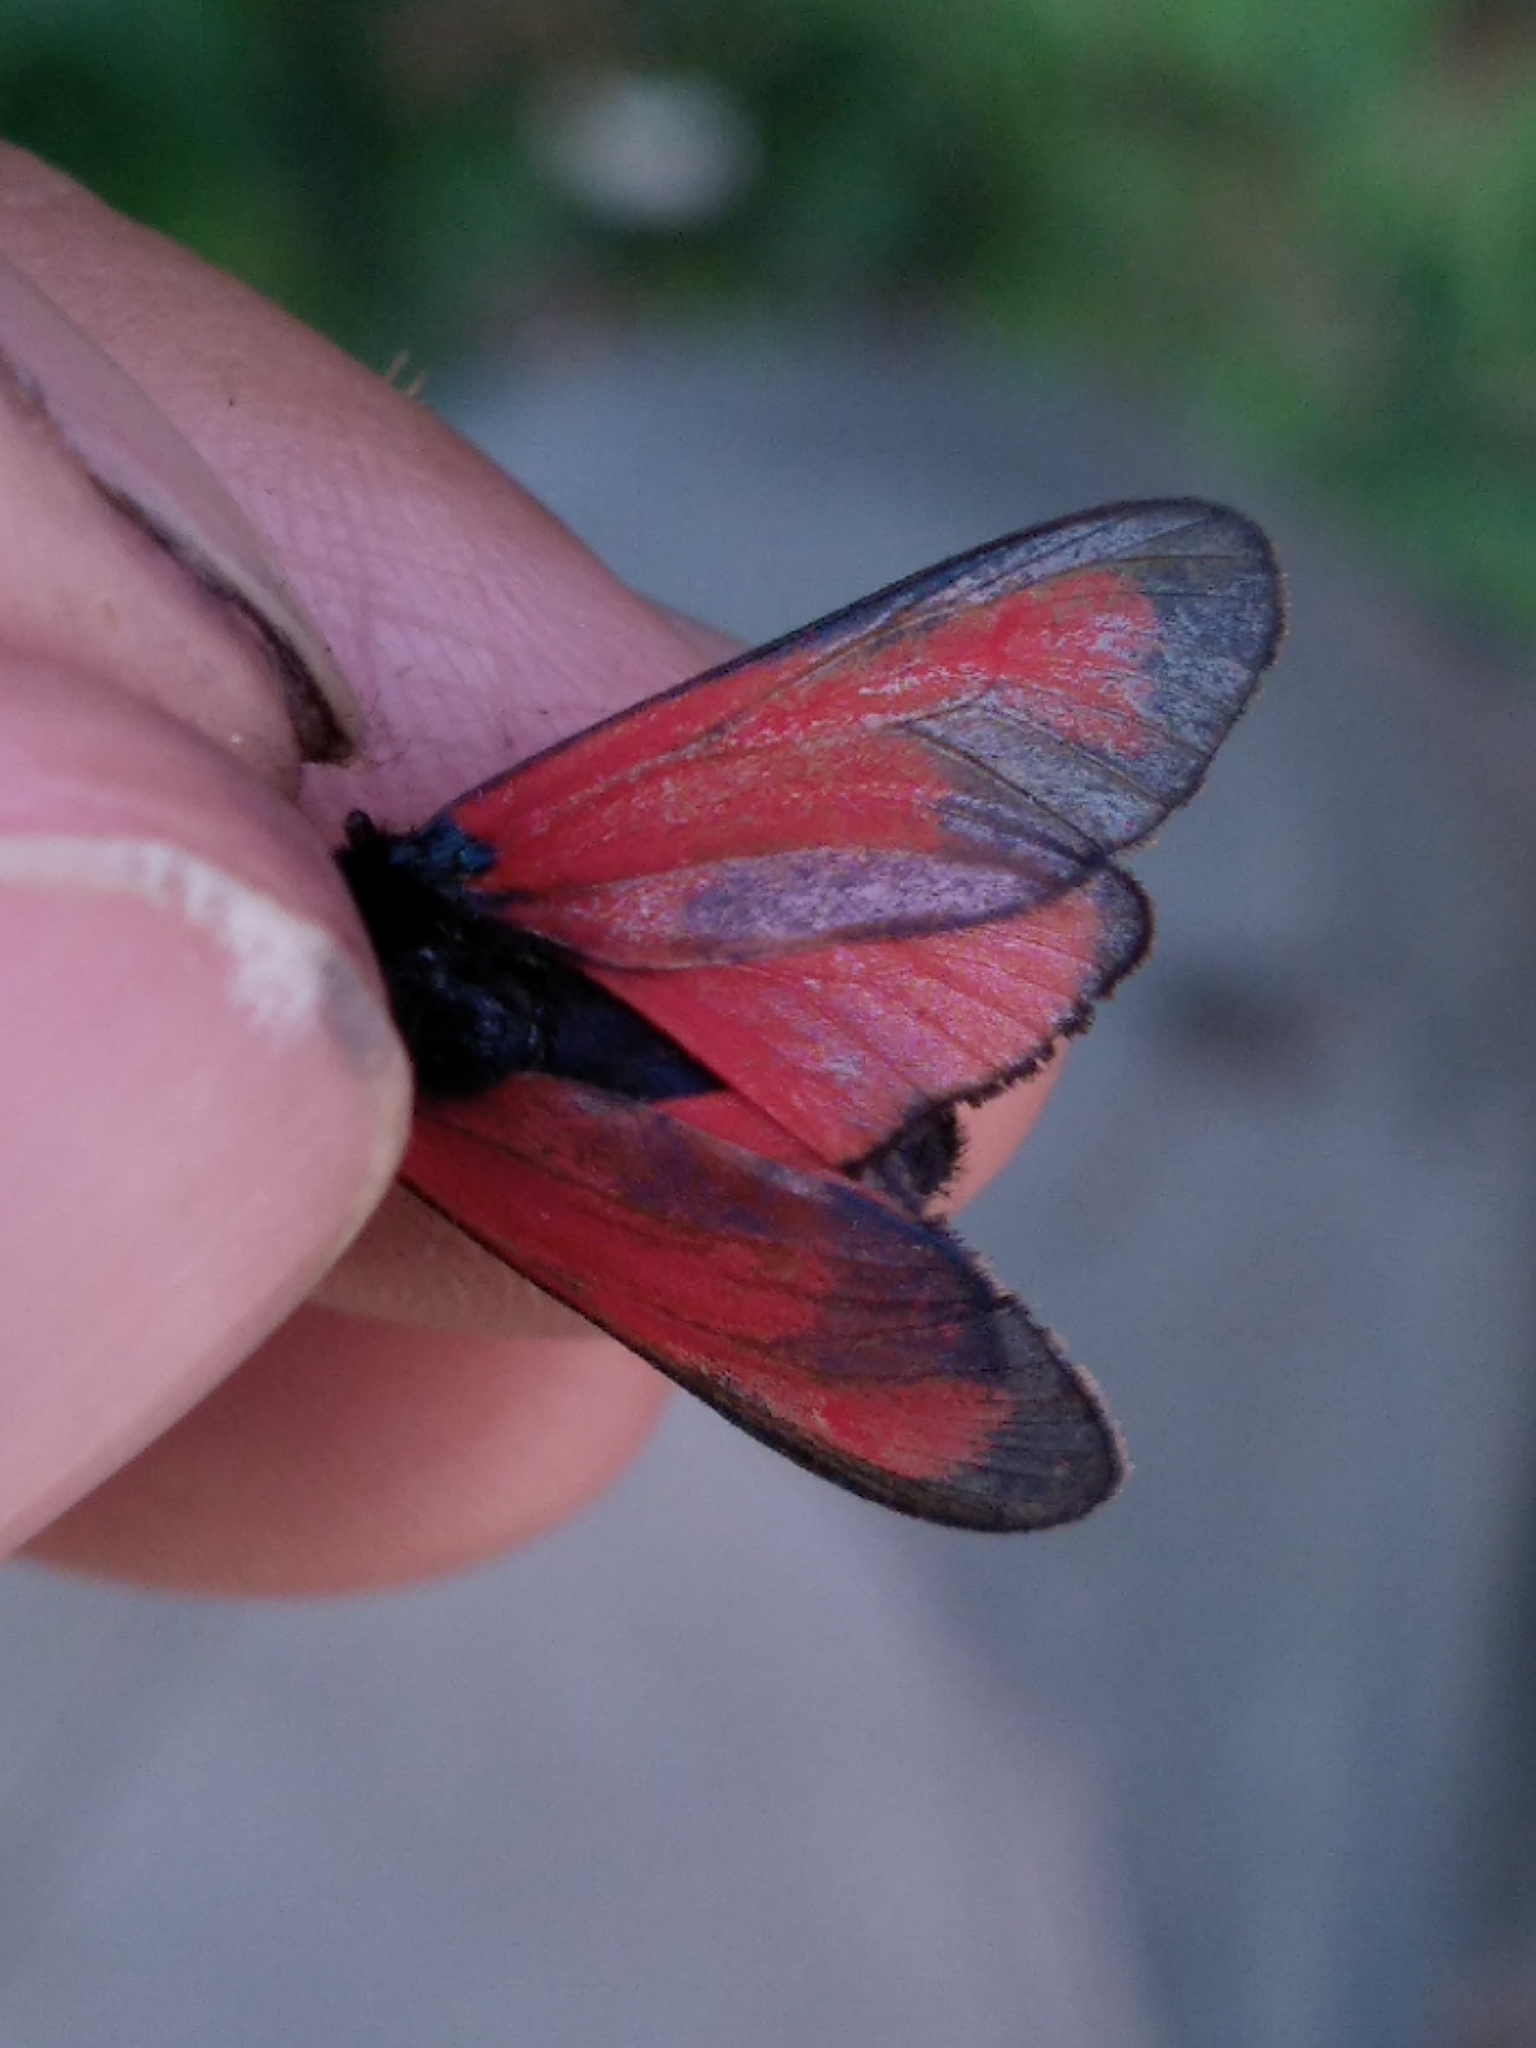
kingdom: Animalia
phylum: Arthropoda
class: Insecta
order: Lepidoptera
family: Zygaenidae
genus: Zygaena
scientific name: Zygaena erythrus
